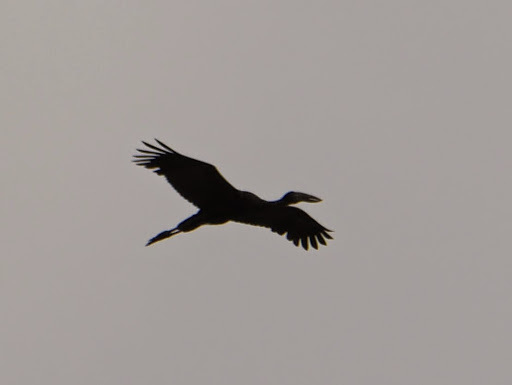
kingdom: Animalia
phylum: Chordata
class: Aves
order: Ciconiiformes
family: Ciconiidae
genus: Anastomus
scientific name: Anastomus lamelligerus
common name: African openbill
